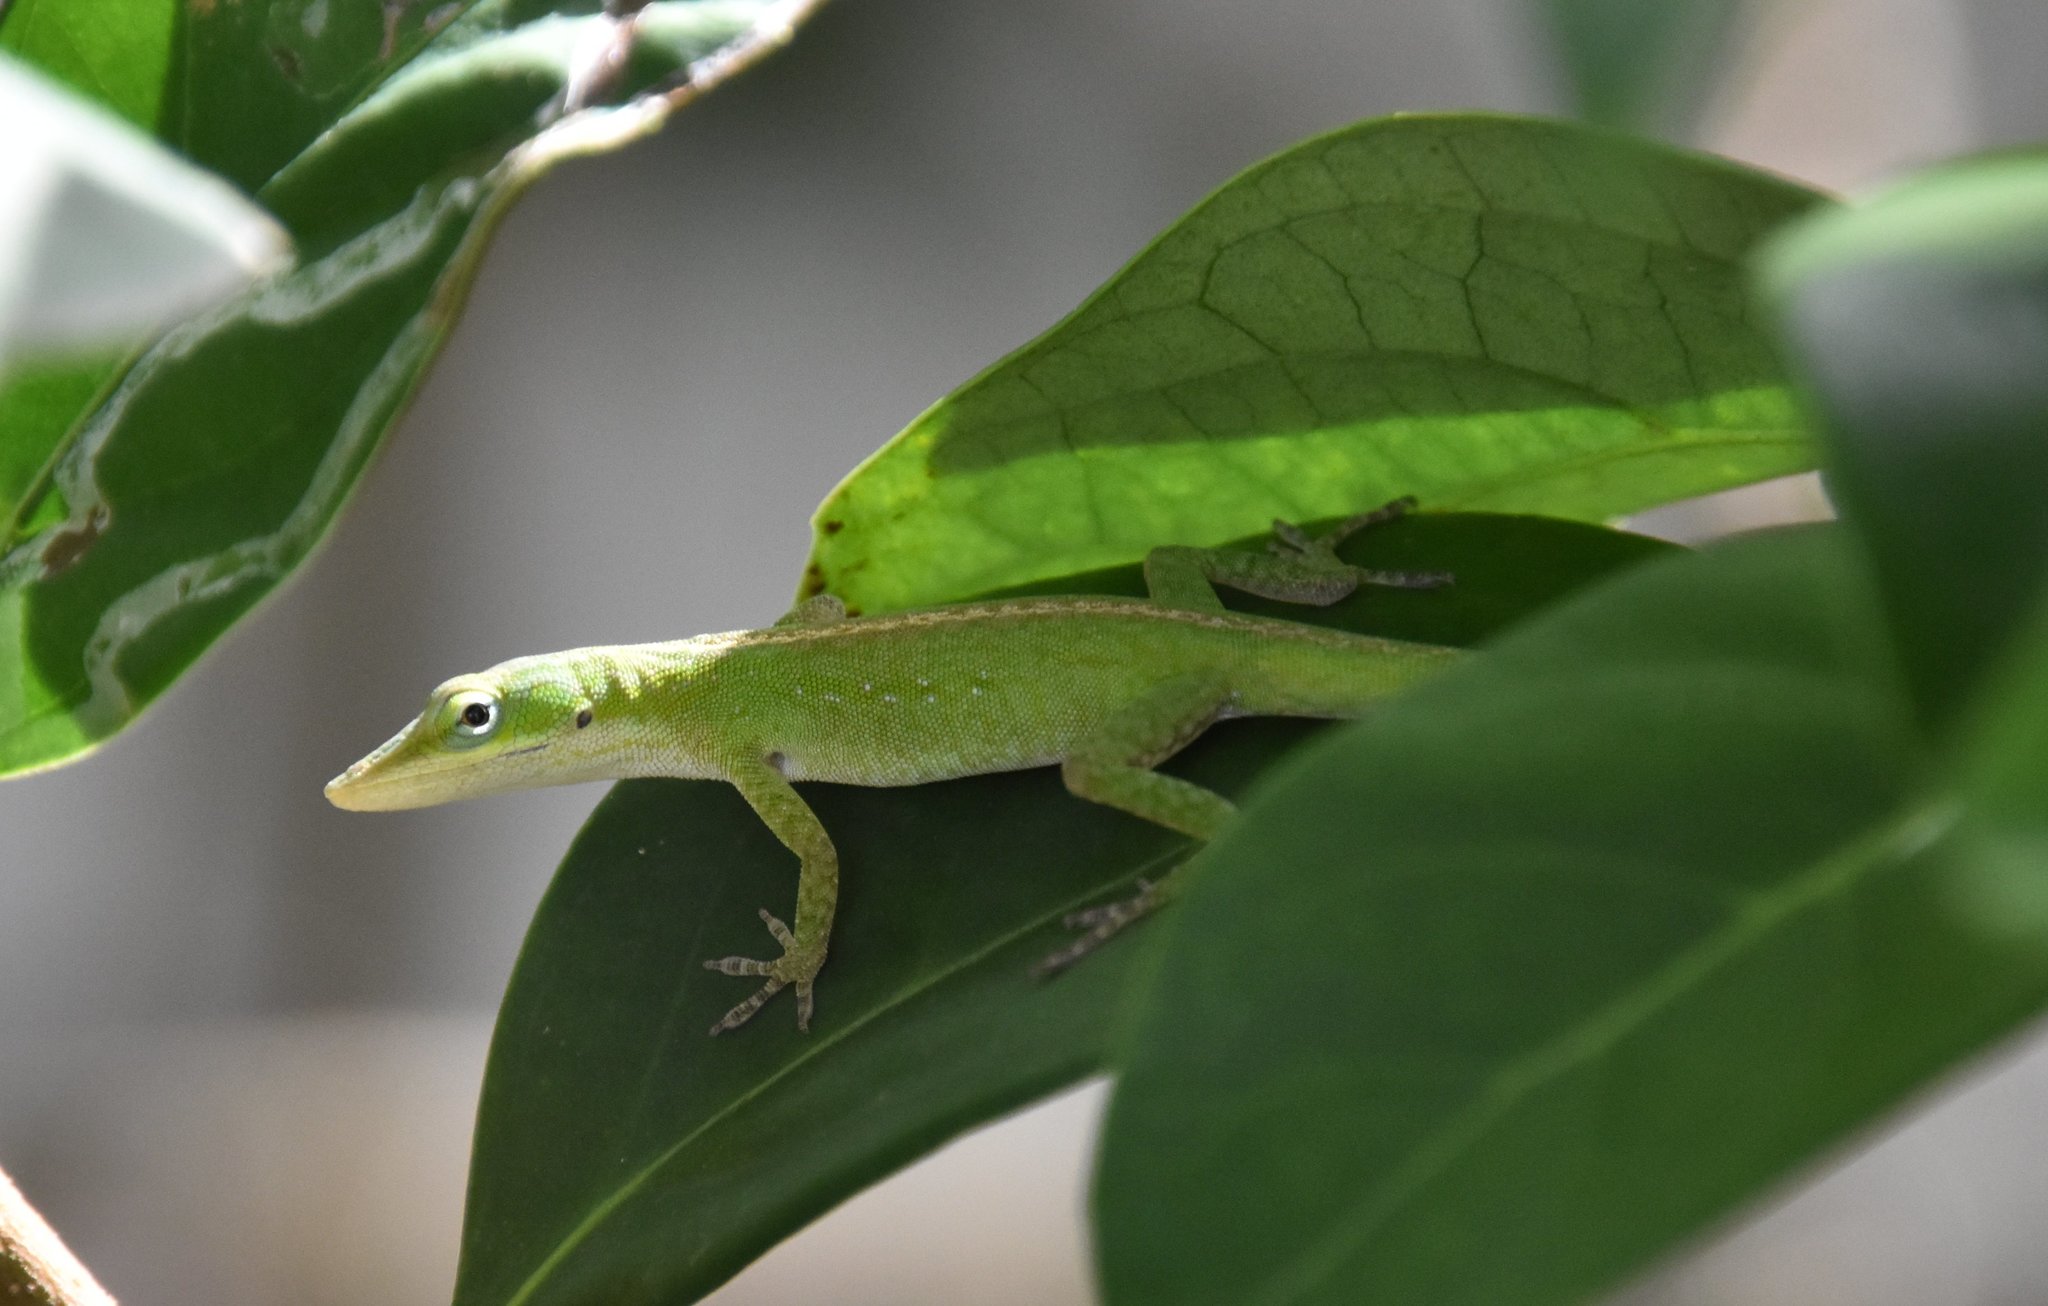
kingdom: Animalia
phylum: Chordata
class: Squamata
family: Dactyloidae
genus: Anolis
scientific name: Anolis carolinensis
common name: Green anole
